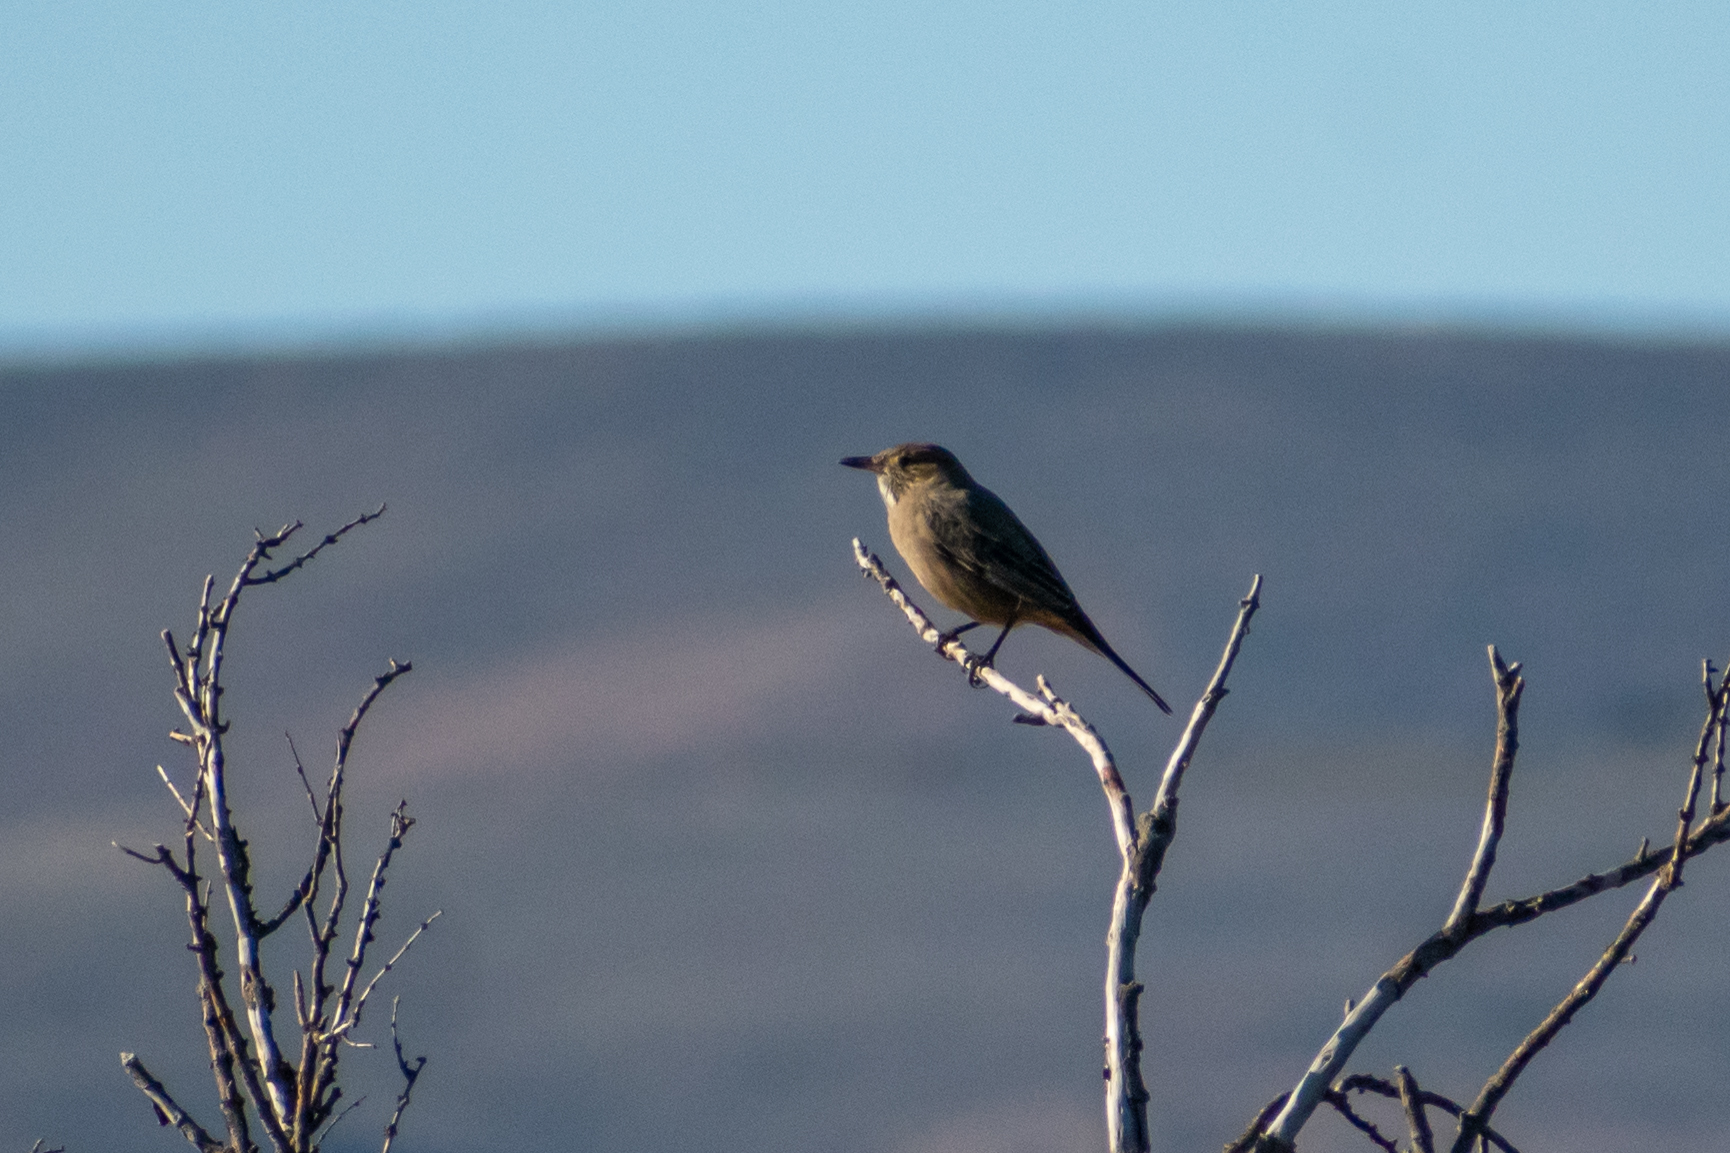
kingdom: Animalia
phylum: Chordata
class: Aves
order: Passeriformes
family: Tyrannidae
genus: Agriornis
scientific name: Agriornis lividus
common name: Great shrike-tyrant
